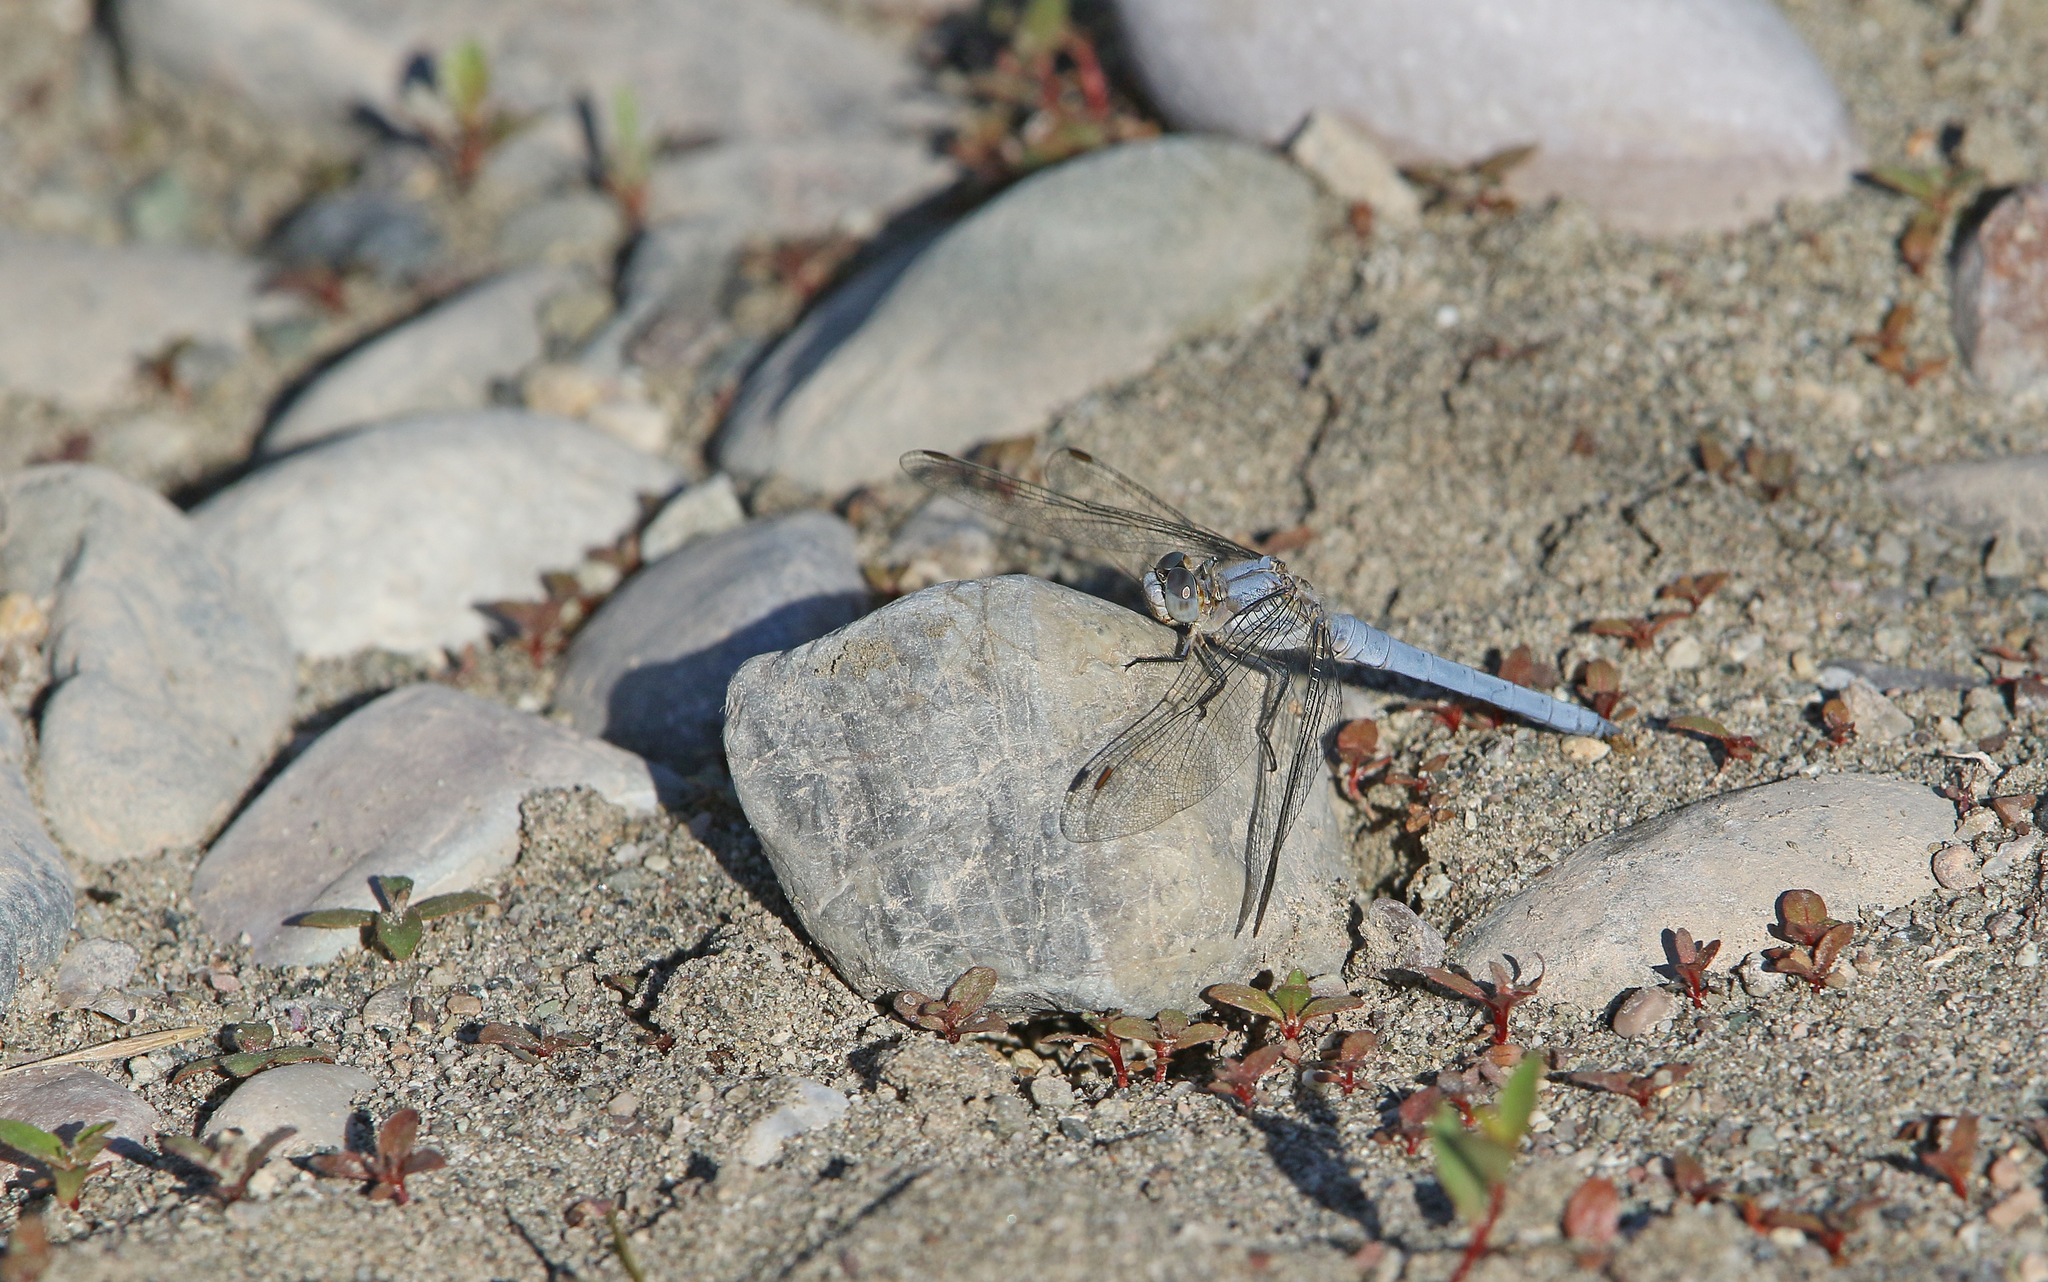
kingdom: Animalia
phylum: Arthropoda
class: Insecta
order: Odonata
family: Libellulidae
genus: Orthetrum
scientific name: Orthetrum brunneum
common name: Southern skimmer
